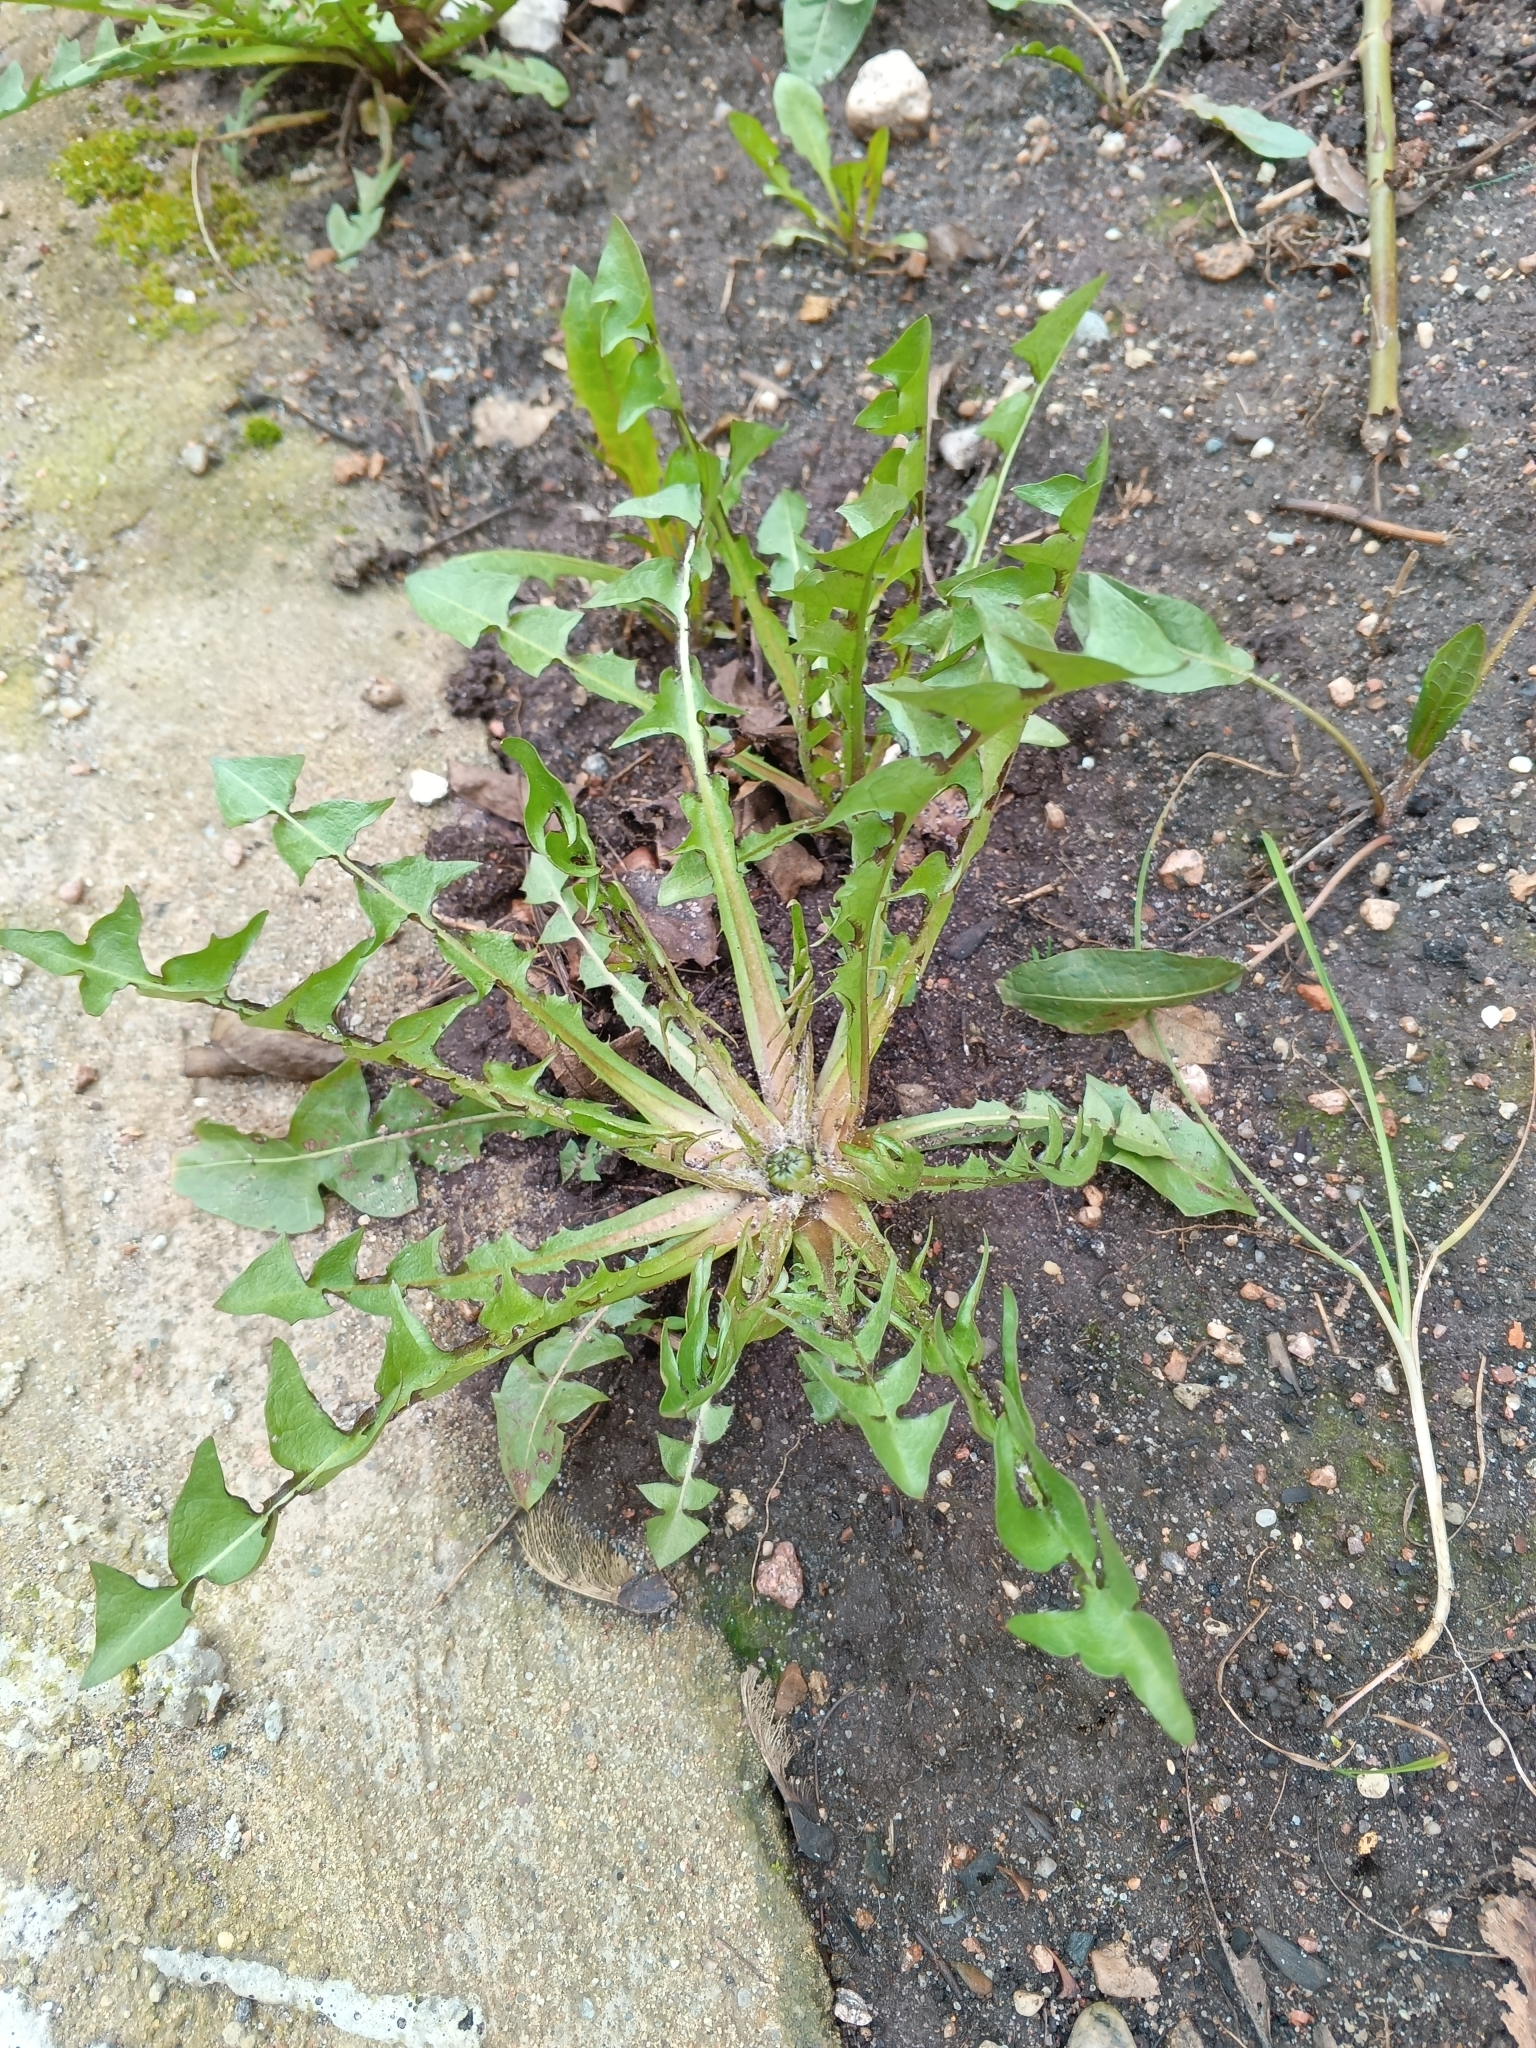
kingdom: Plantae
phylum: Tracheophyta
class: Magnoliopsida
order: Asterales
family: Asteraceae
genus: Taraxacum
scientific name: Taraxacum officinale
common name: Common dandelion
